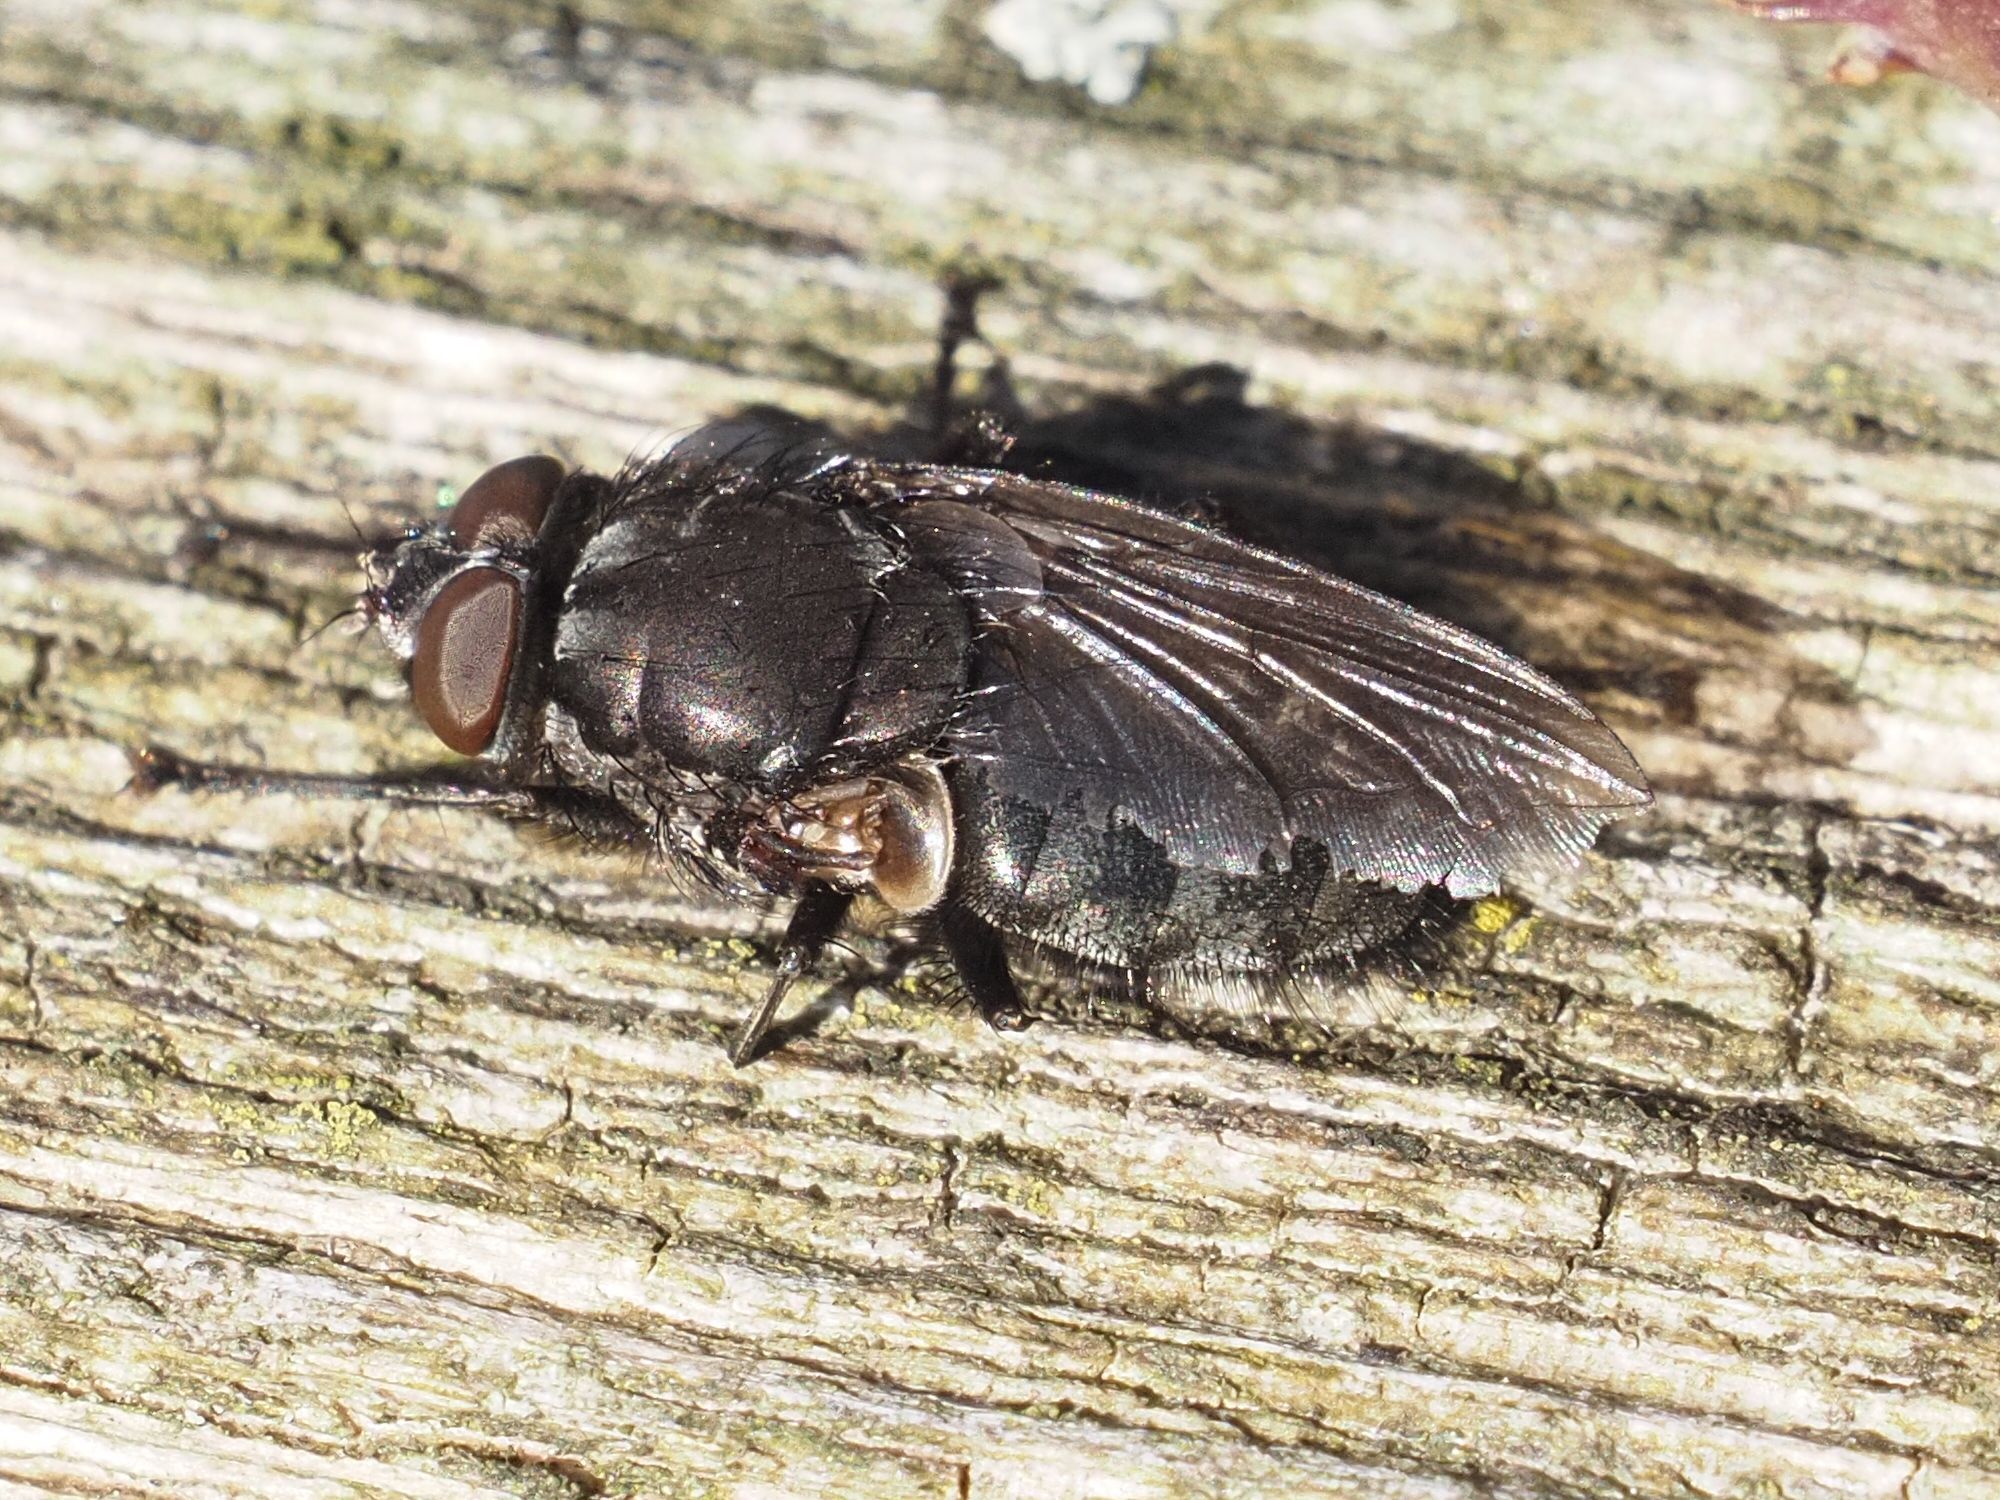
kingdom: Animalia
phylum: Arthropoda
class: Insecta
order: Diptera
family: Polleniidae
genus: Pollenia
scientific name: Pollenia vagabunda
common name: Vagabund cluster fly
